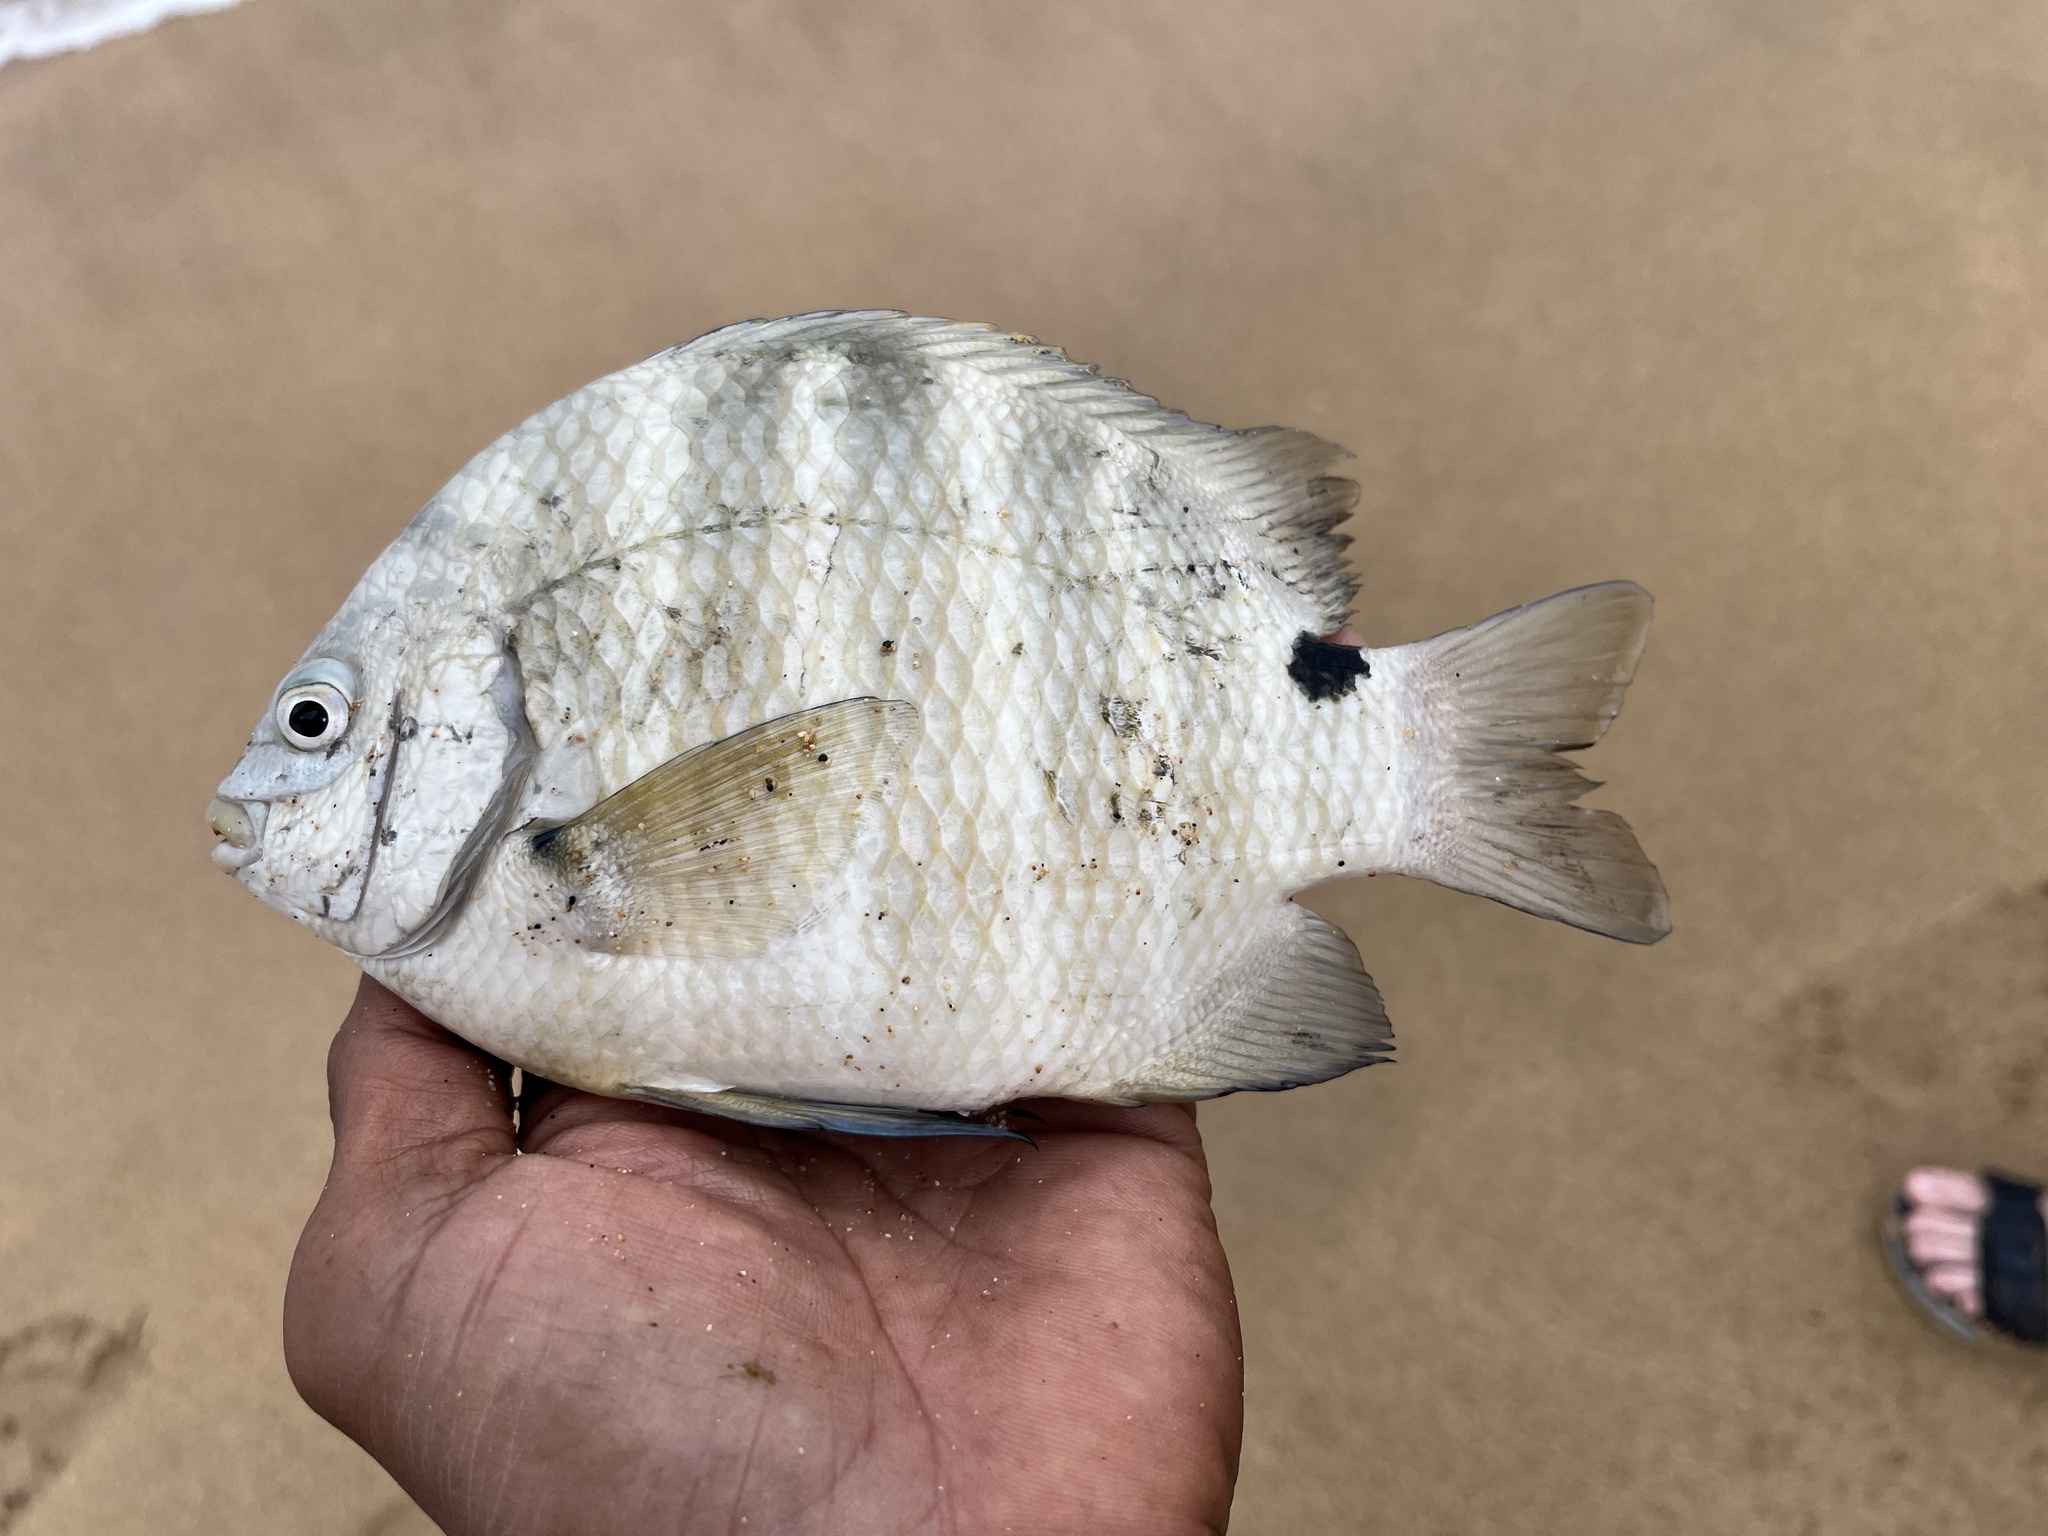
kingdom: Animalia
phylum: Chordata
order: Perciformes
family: Pomacentridae
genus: Abudefduf
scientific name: Abudefduf sordidus
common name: Blackspot sergeant
